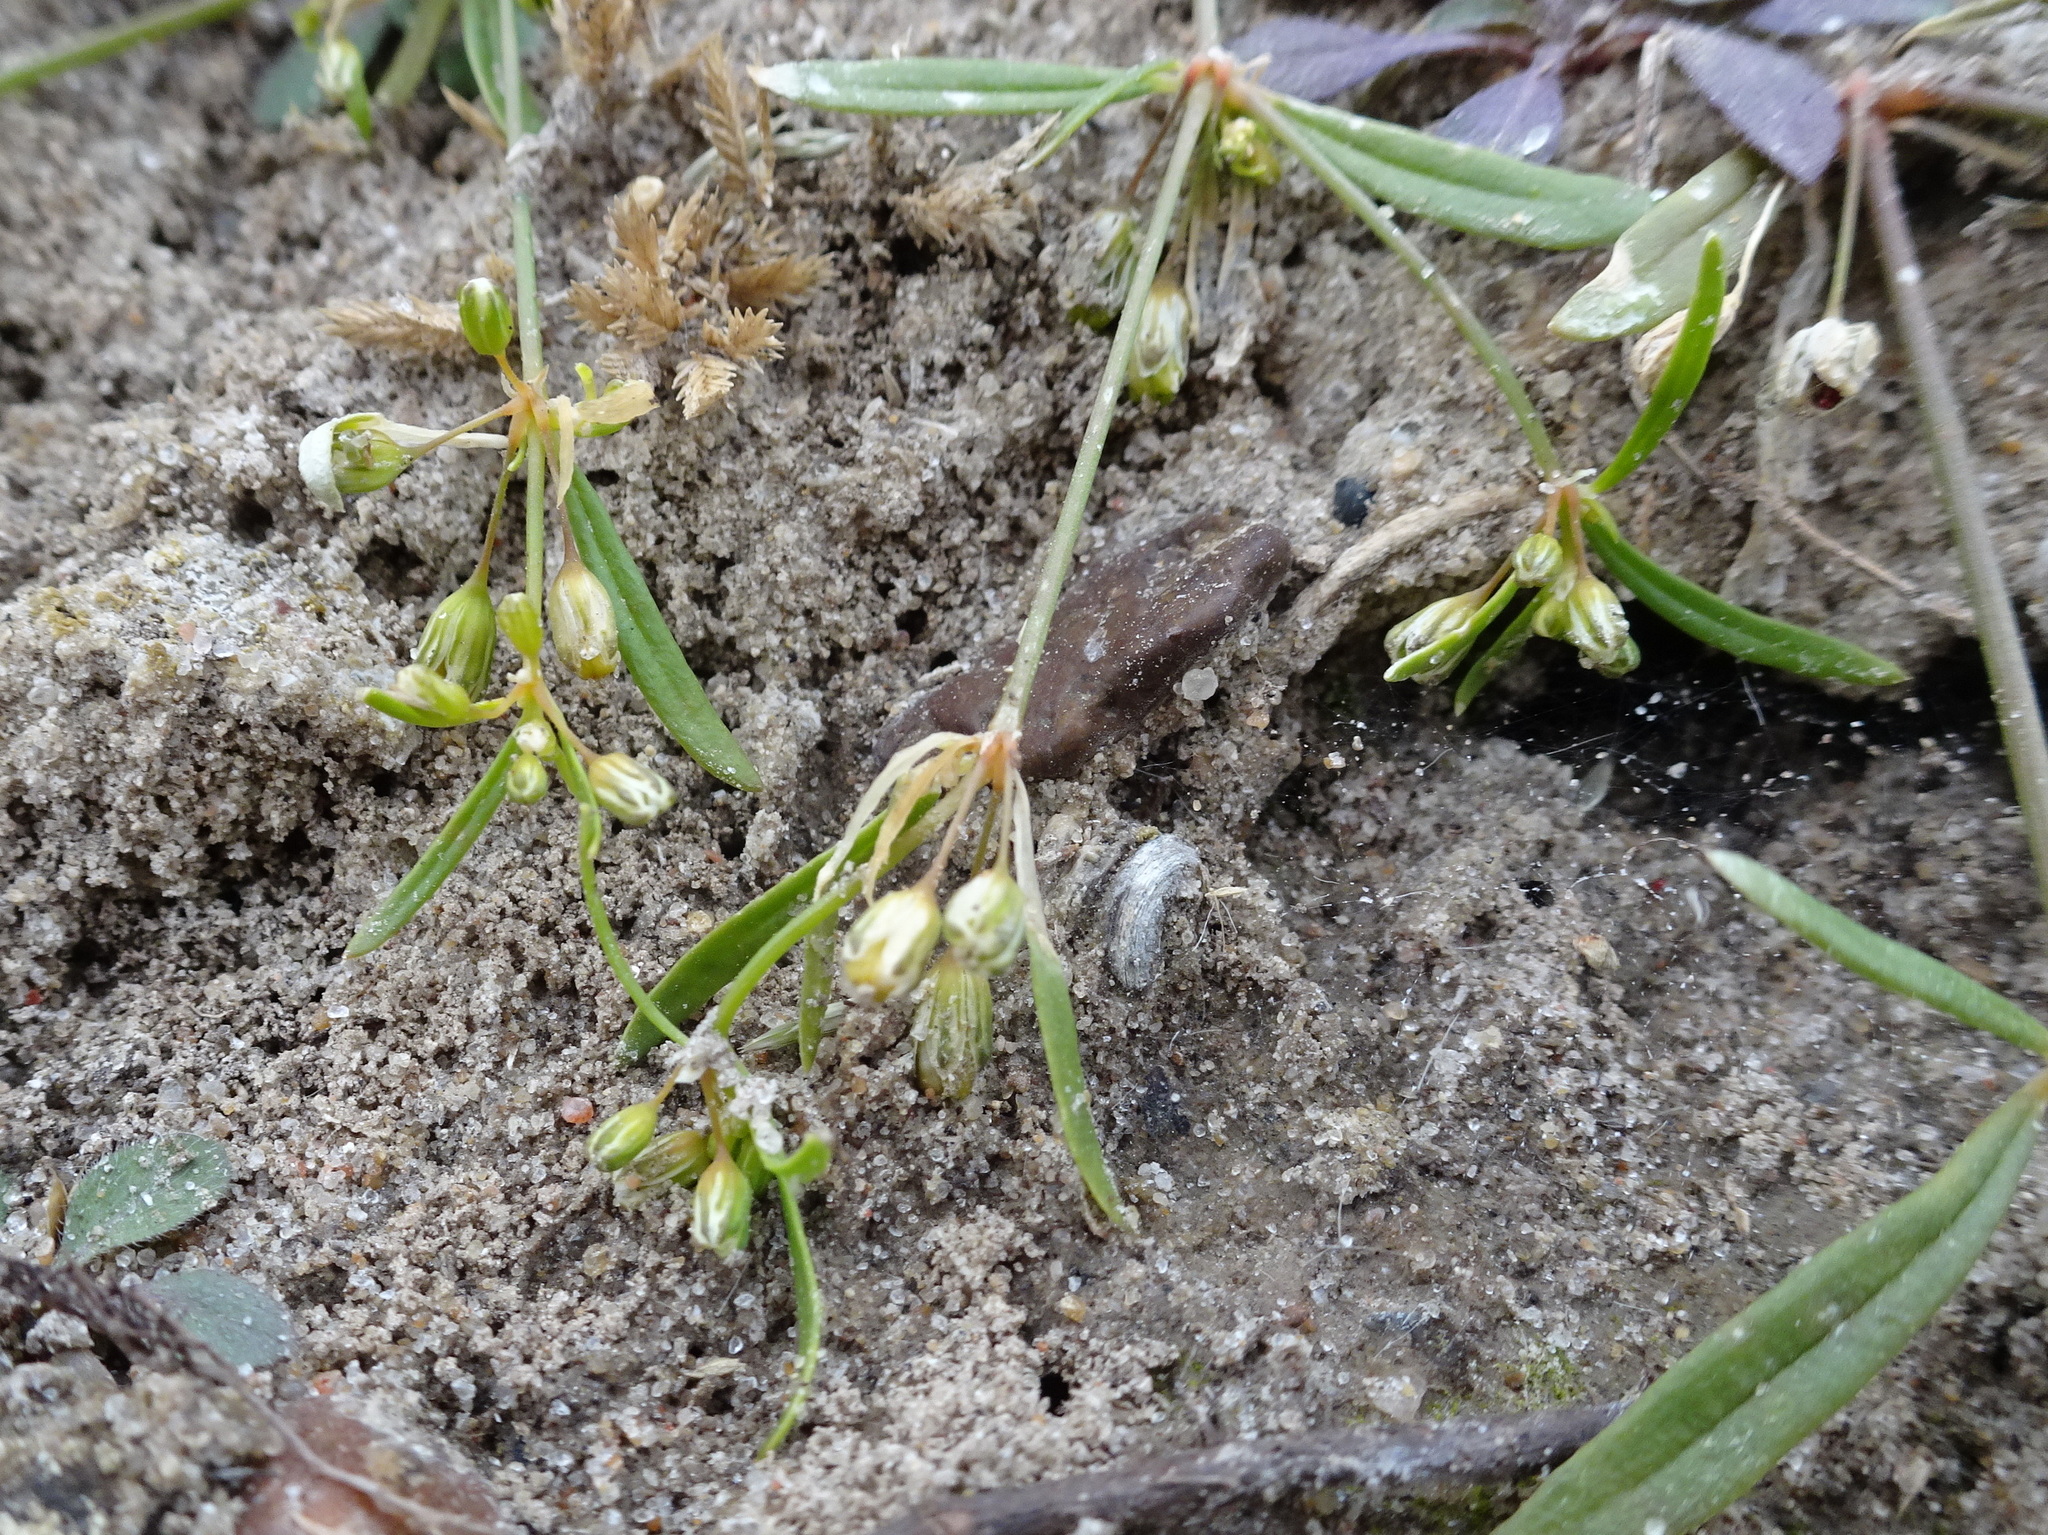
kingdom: Plantae
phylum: Tracheophyta
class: Magnoliopsida
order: Caryophyllales
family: Molluginaceae
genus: Mollugo
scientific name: Mollugo verticillata
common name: Green carpetweed
